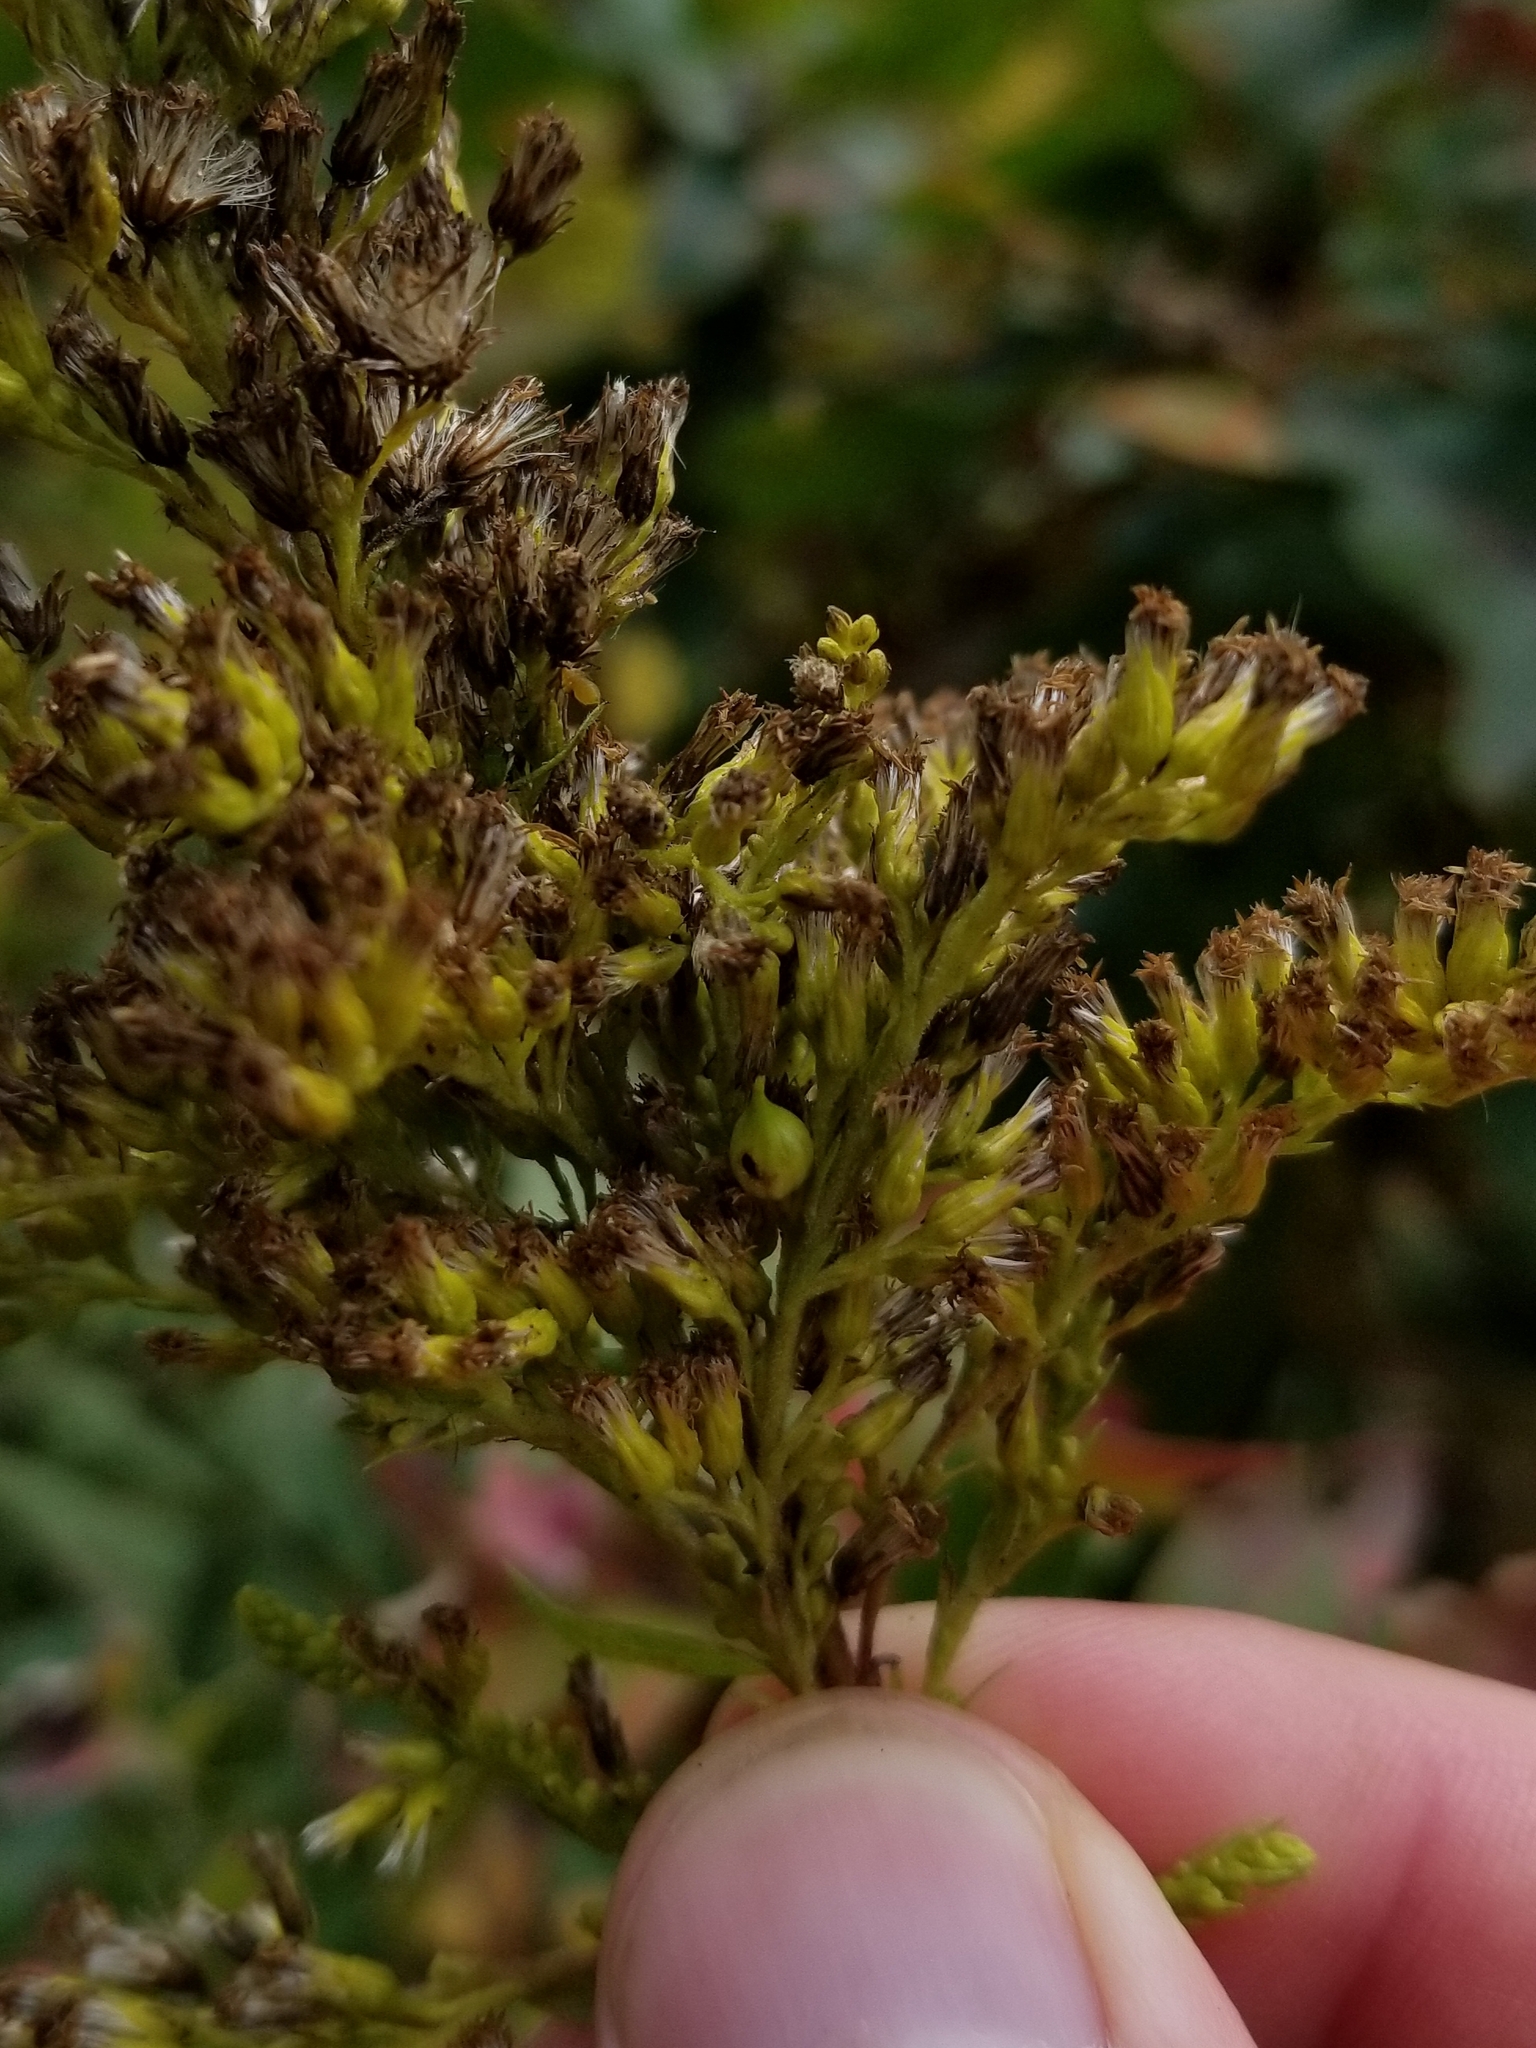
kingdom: Animalia
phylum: Arthropoda
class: Insecta
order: Diptera
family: Cecidomyiidae
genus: Schizomyia
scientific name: Schizomyia racemicola
